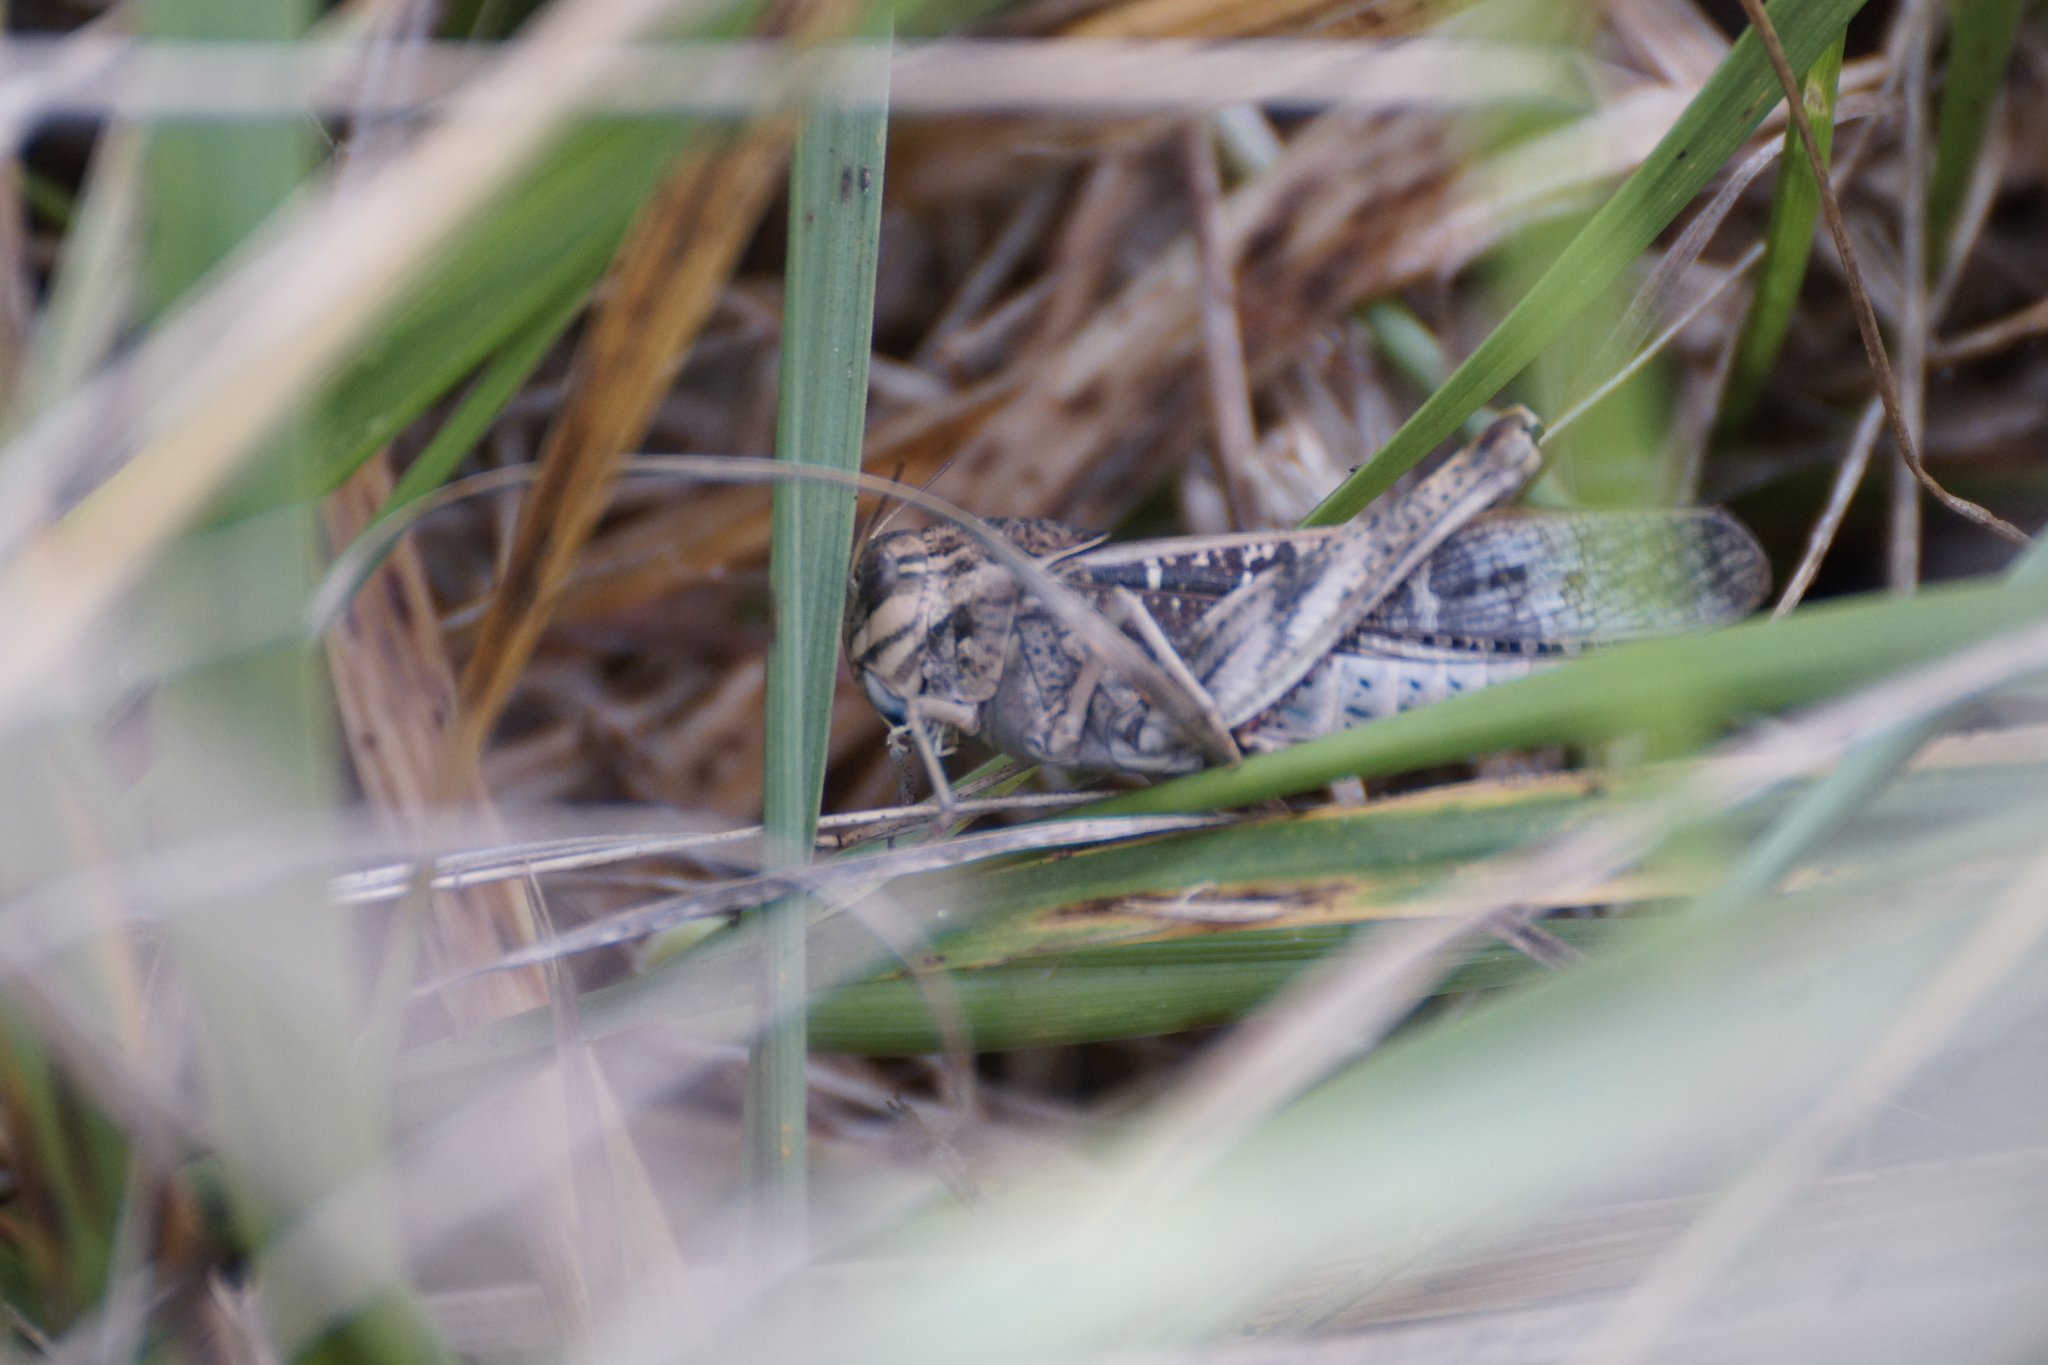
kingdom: Animalia
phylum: Arthropoda
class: Insecta
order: Orthoptera
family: Acrididae
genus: Gastrimargus
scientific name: Gastrimargus musicus
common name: Yellow-winged locust
